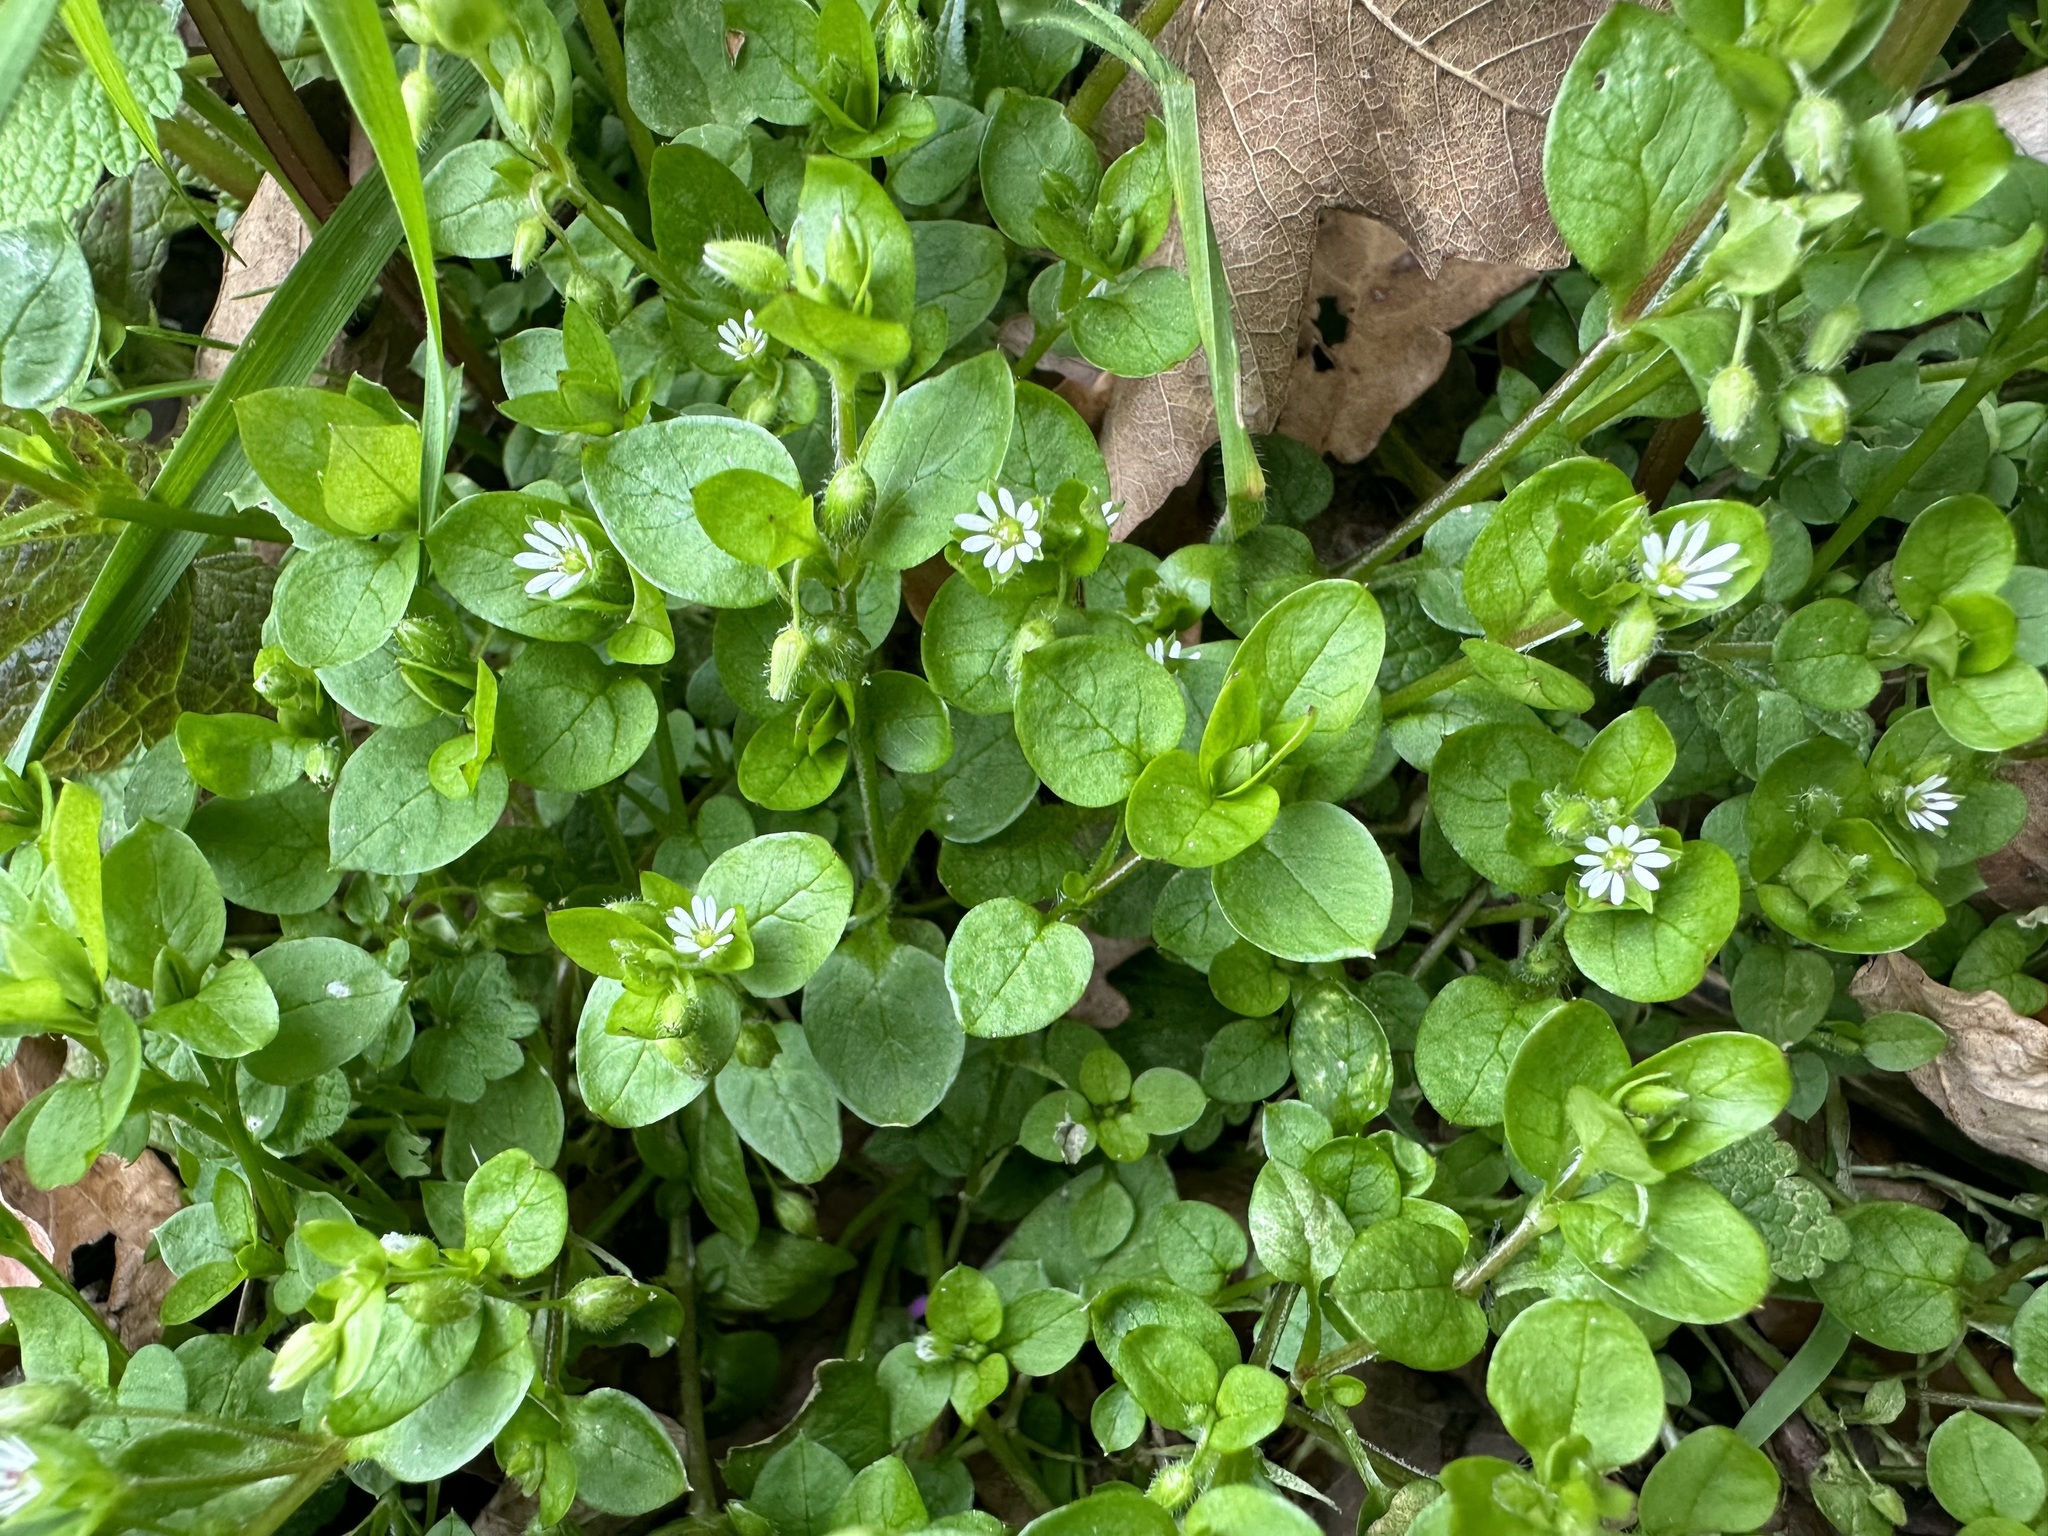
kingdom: Plantae
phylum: Tracheophyta
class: Magnoliopsida
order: Caryophyllales
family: Caryophyllaceae
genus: Stellaria
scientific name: Stellaria media
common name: Common chickweed
